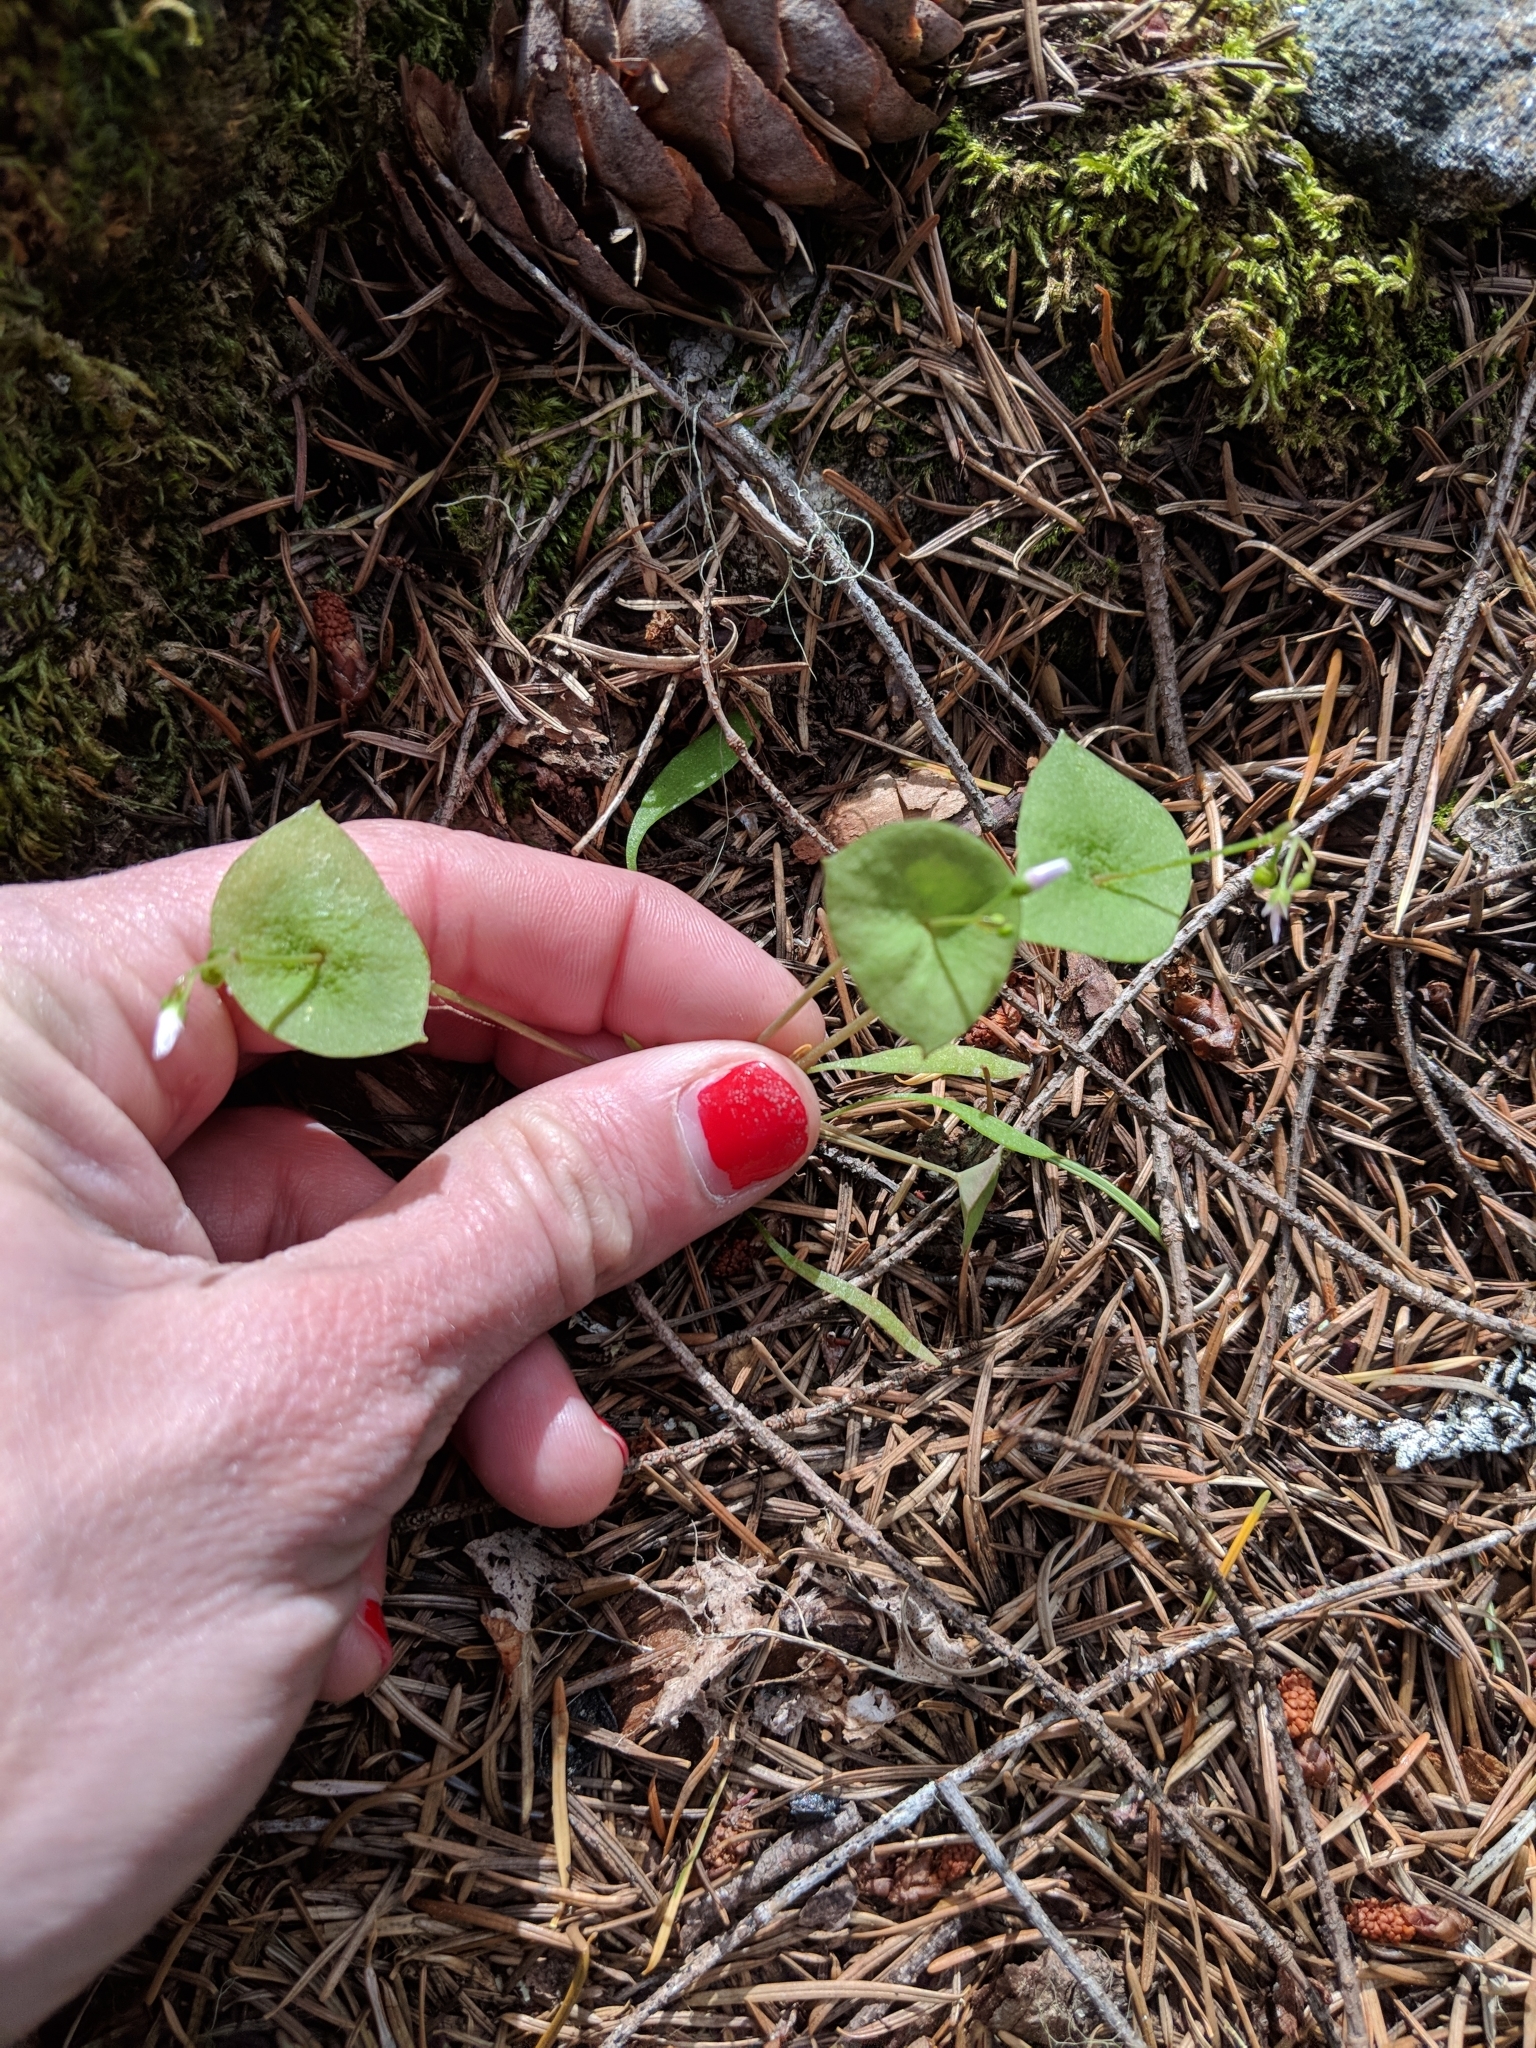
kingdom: Plantae
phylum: Tracheophyta
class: Magnoliopsida
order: Caryophyllales
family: Montiaceae
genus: Claytonia
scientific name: Claytonia parviflora
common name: Indian-lettuce
